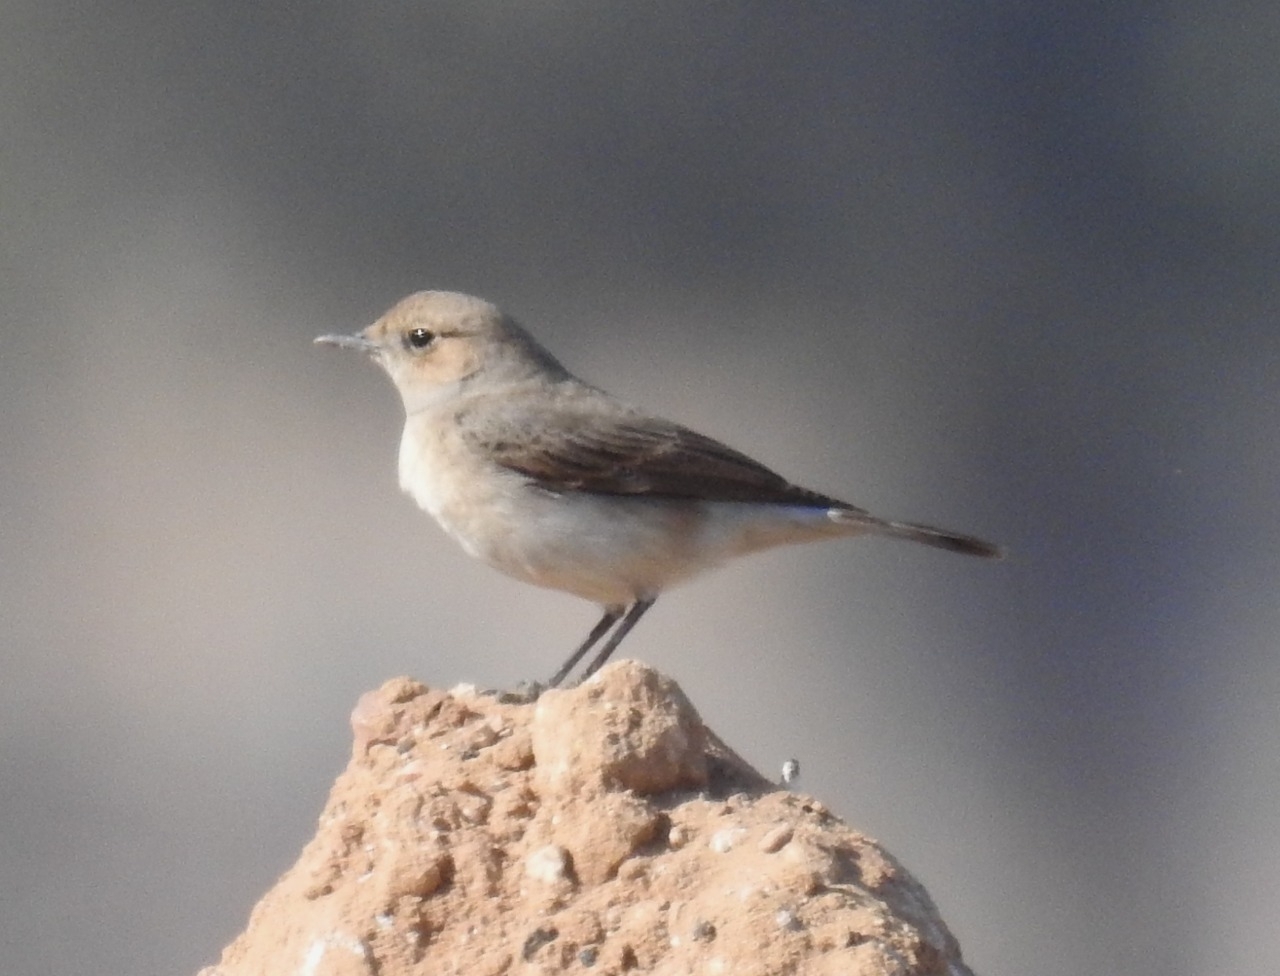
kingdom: Animalia
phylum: Chordata
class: Aves
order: Passeriformes
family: Muscicapidae
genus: Oenanthe
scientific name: Oenanthe finschii
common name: Finsch's wheatear
